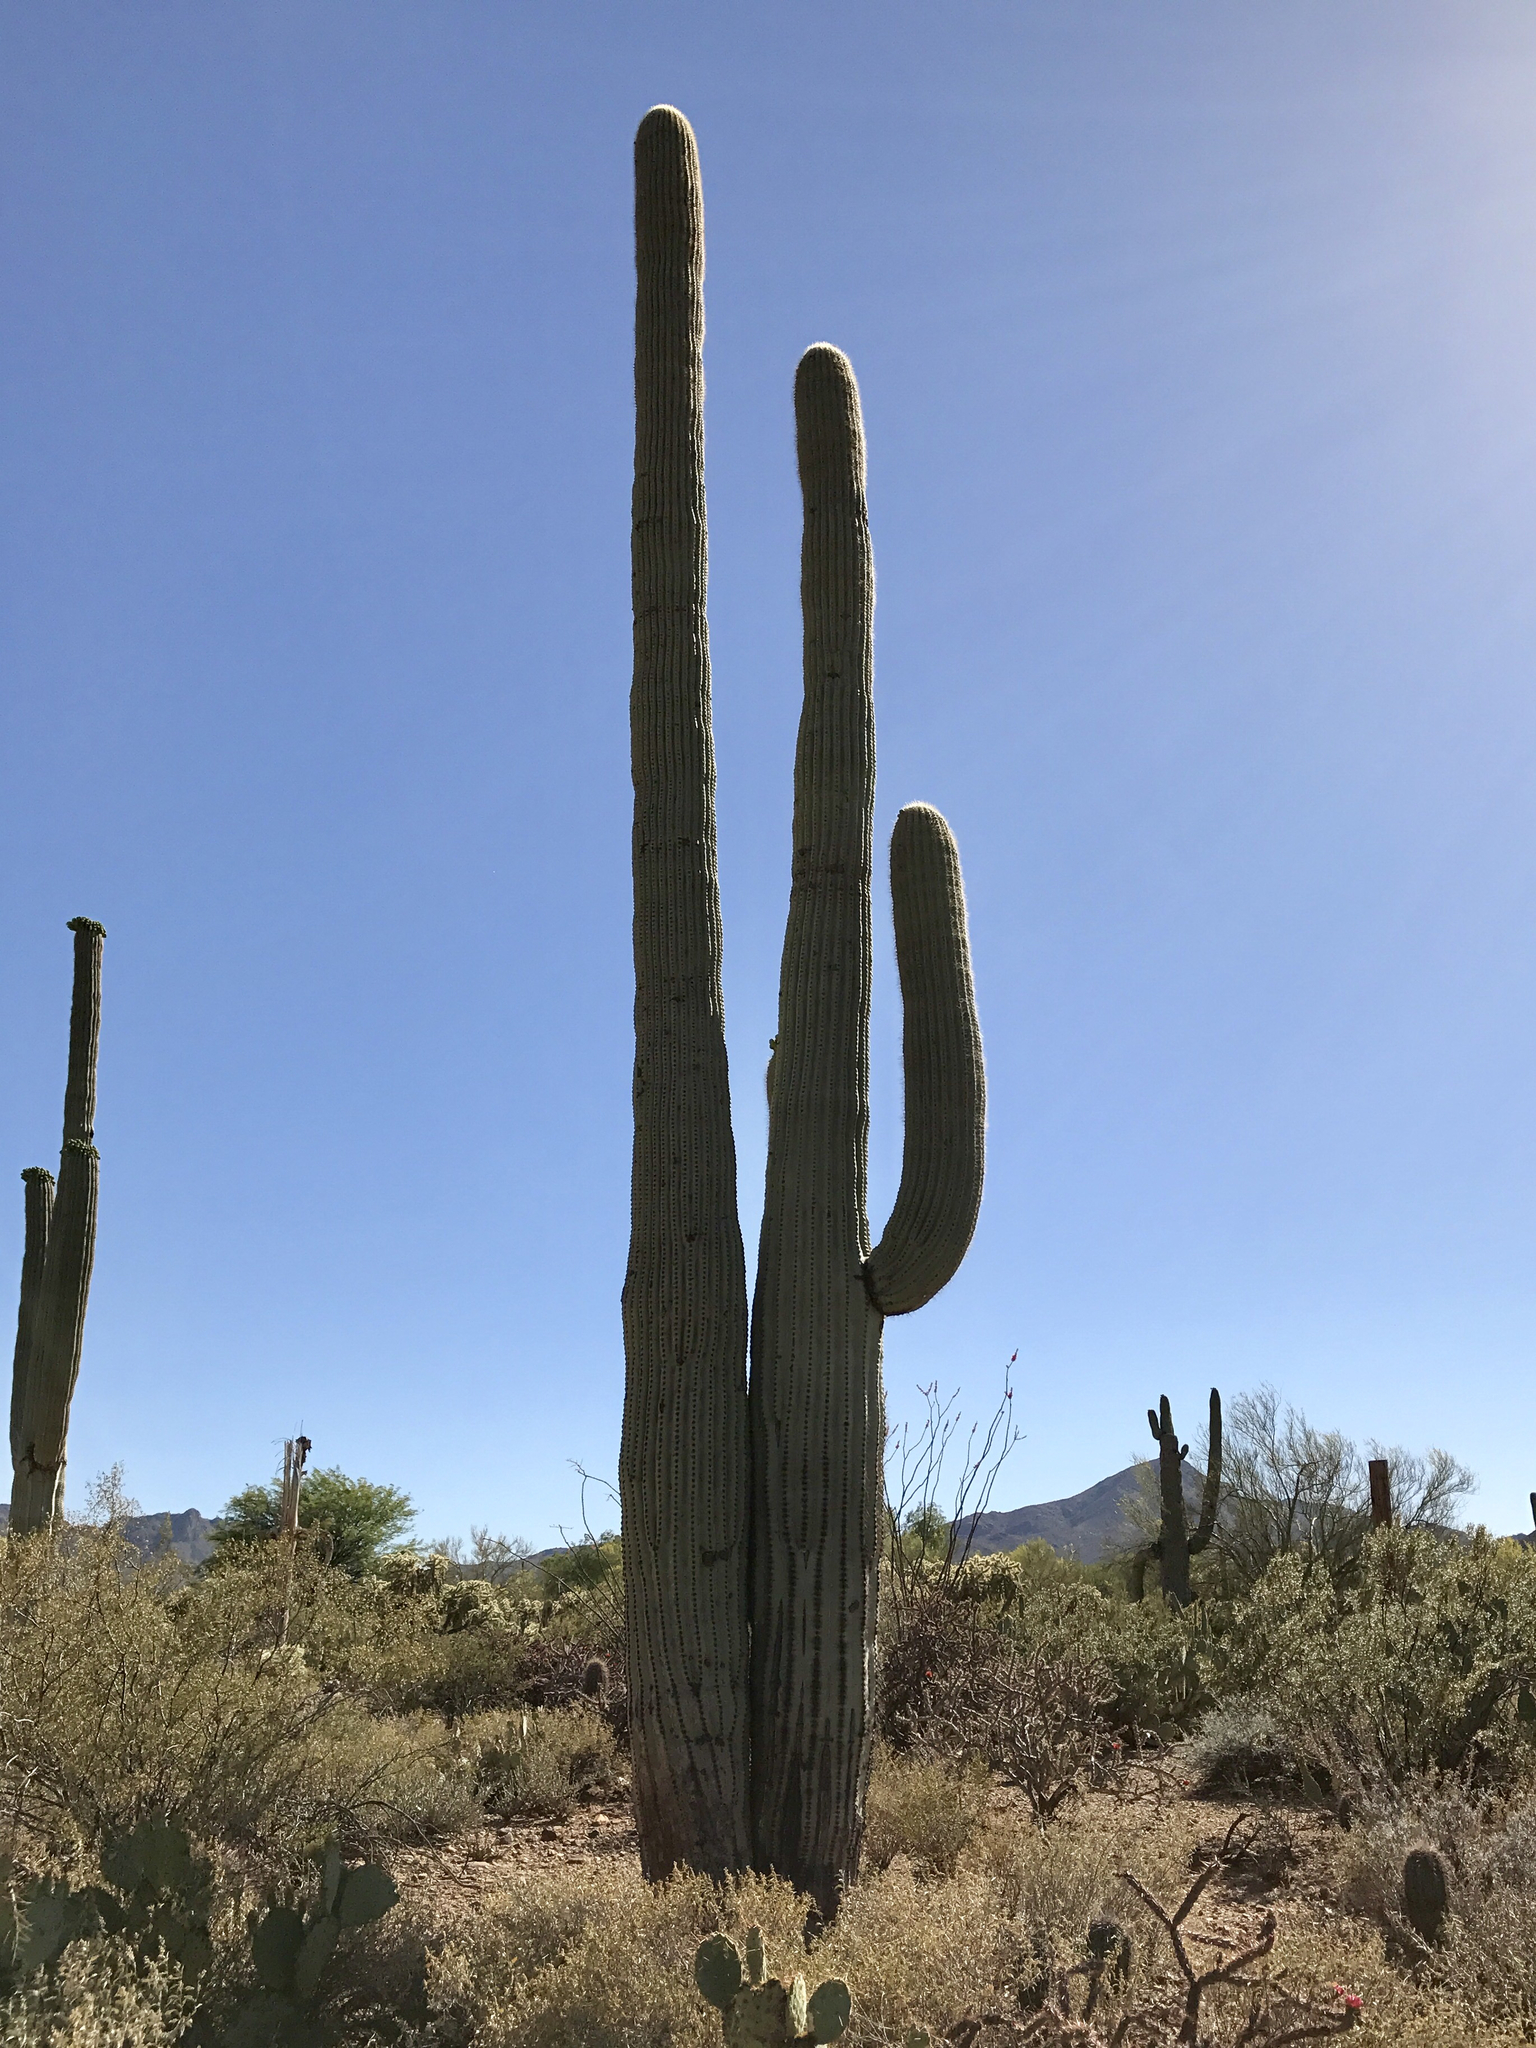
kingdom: Plantae
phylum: Tracheophyta
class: Magnoliopsida
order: Caryophyllales
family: Cactaceae
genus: Carnegiea
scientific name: Carnegiea gigantea
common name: Saguaro
